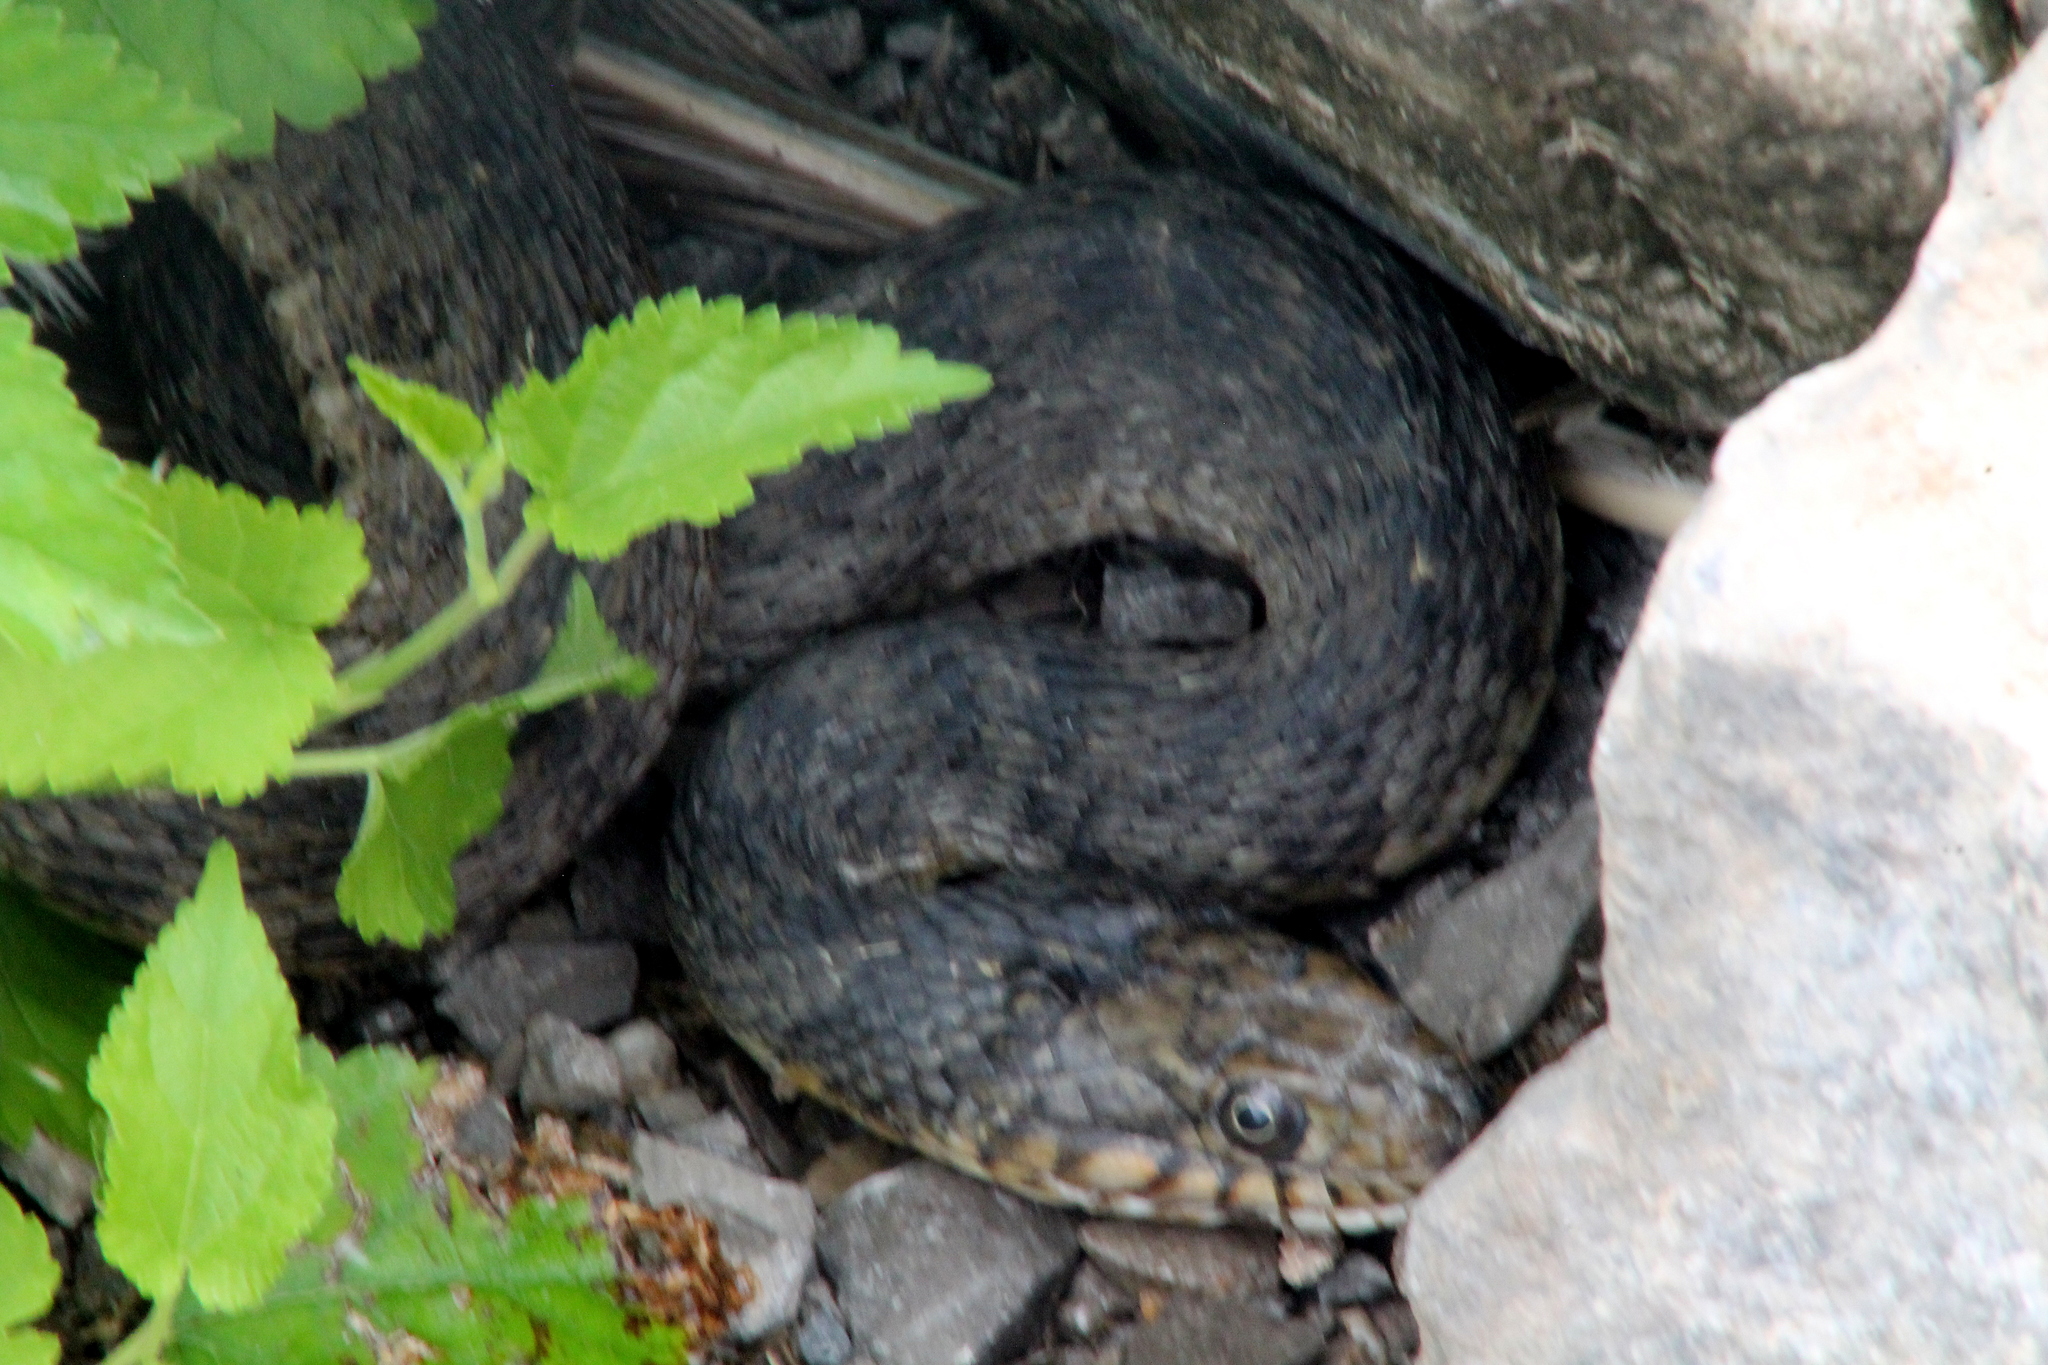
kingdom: Animalia
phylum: Chordata
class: Squamata
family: Colubridae
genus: Nerodia
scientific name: Nerodia rhombifer
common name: Diamondback water snake
